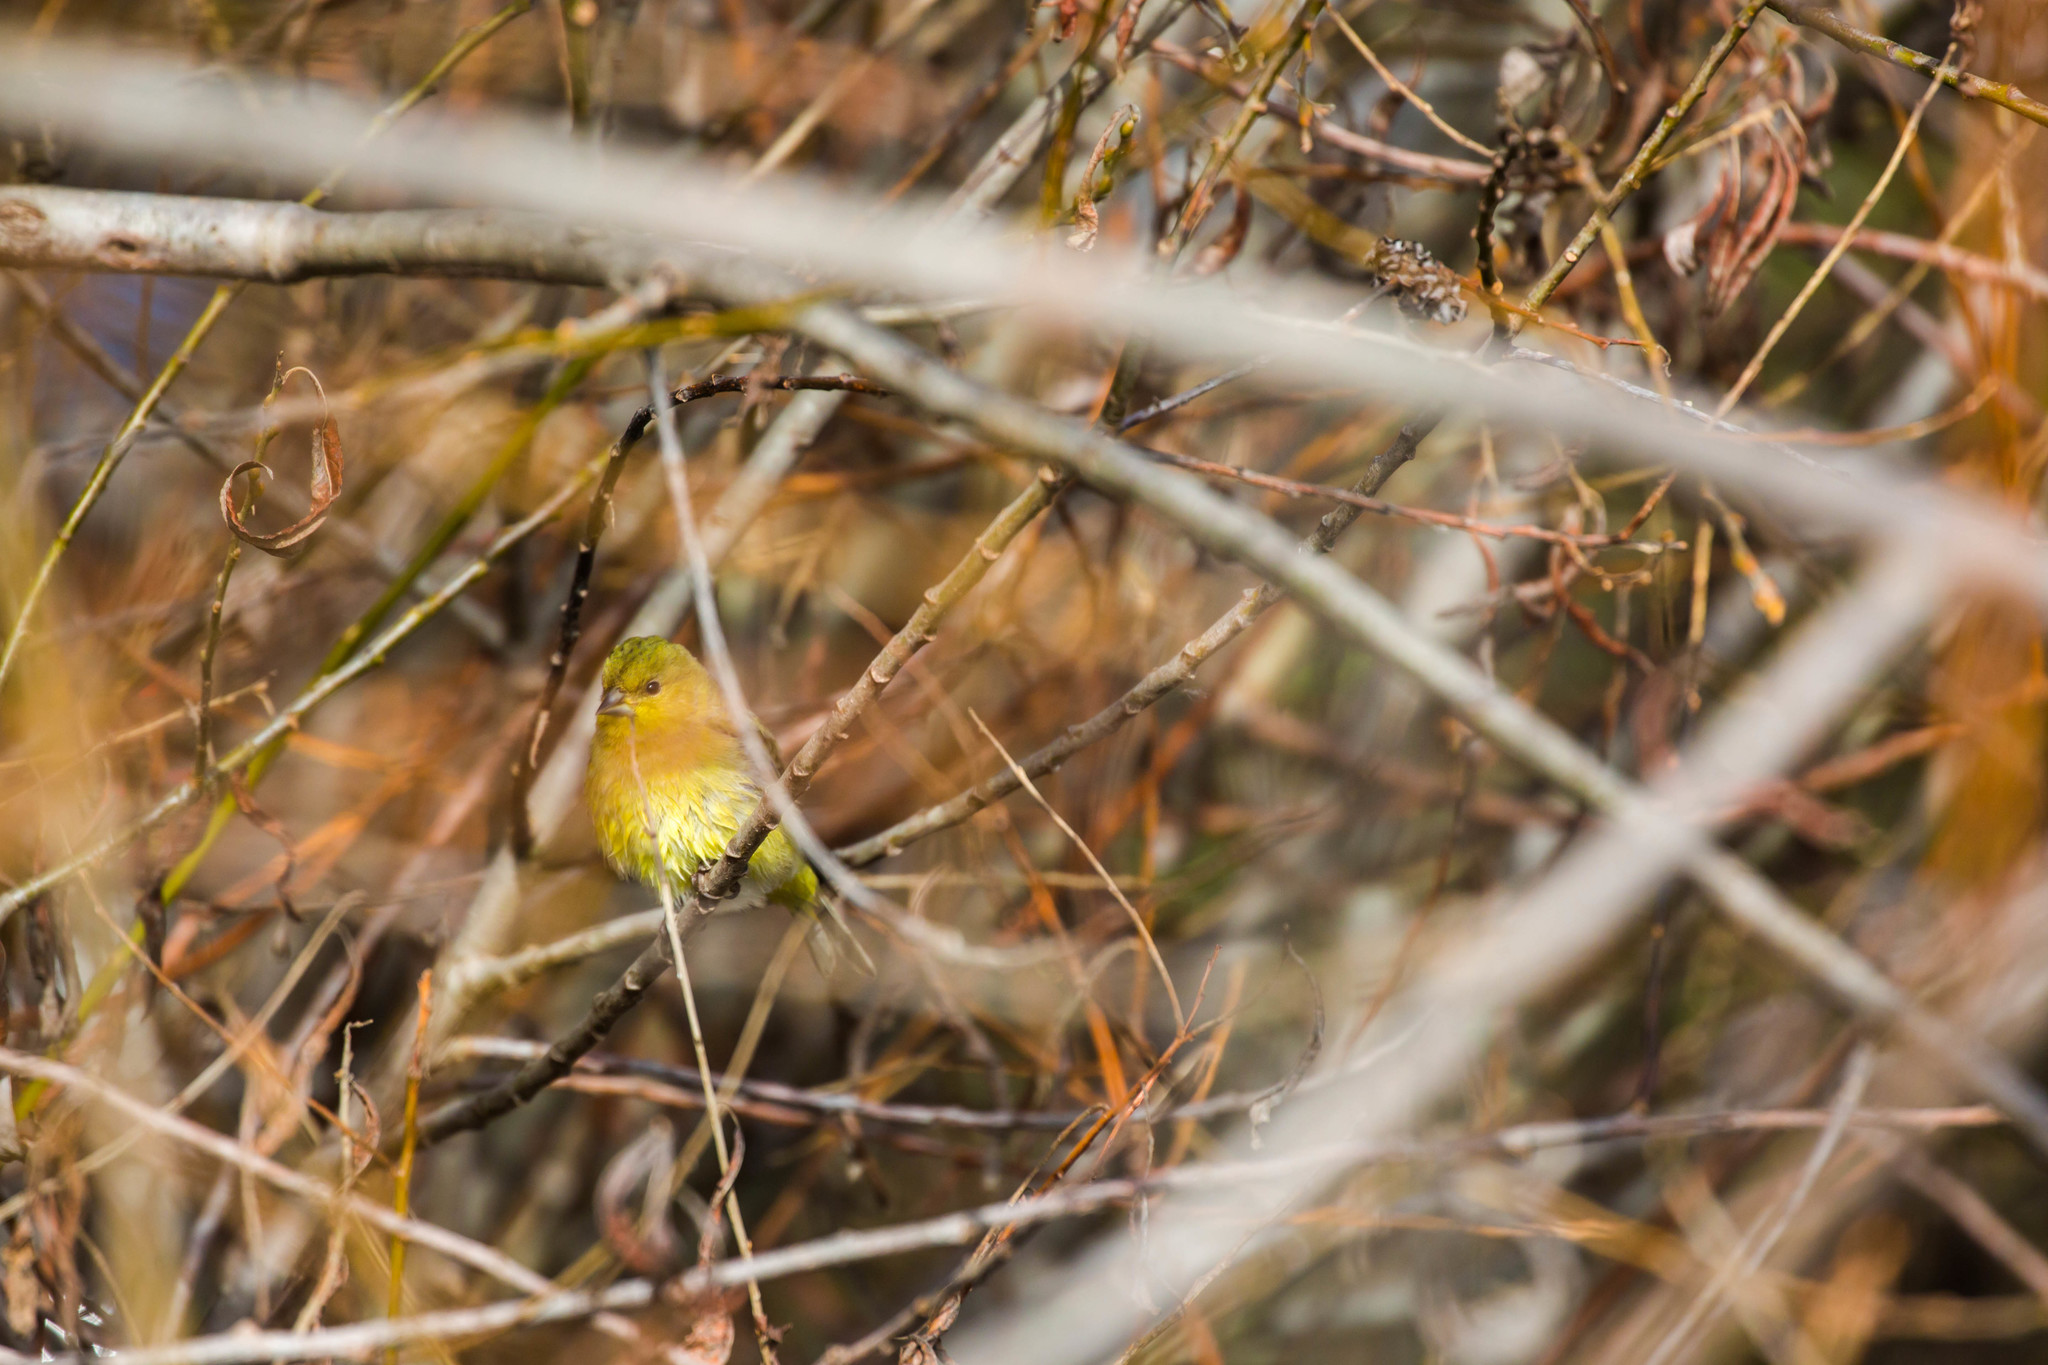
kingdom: Animalia
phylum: Chordata
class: Aves
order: Passeriformes
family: Fringillidae
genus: Spinus
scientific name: Spinus psaltria
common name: Lesser goldfinch
